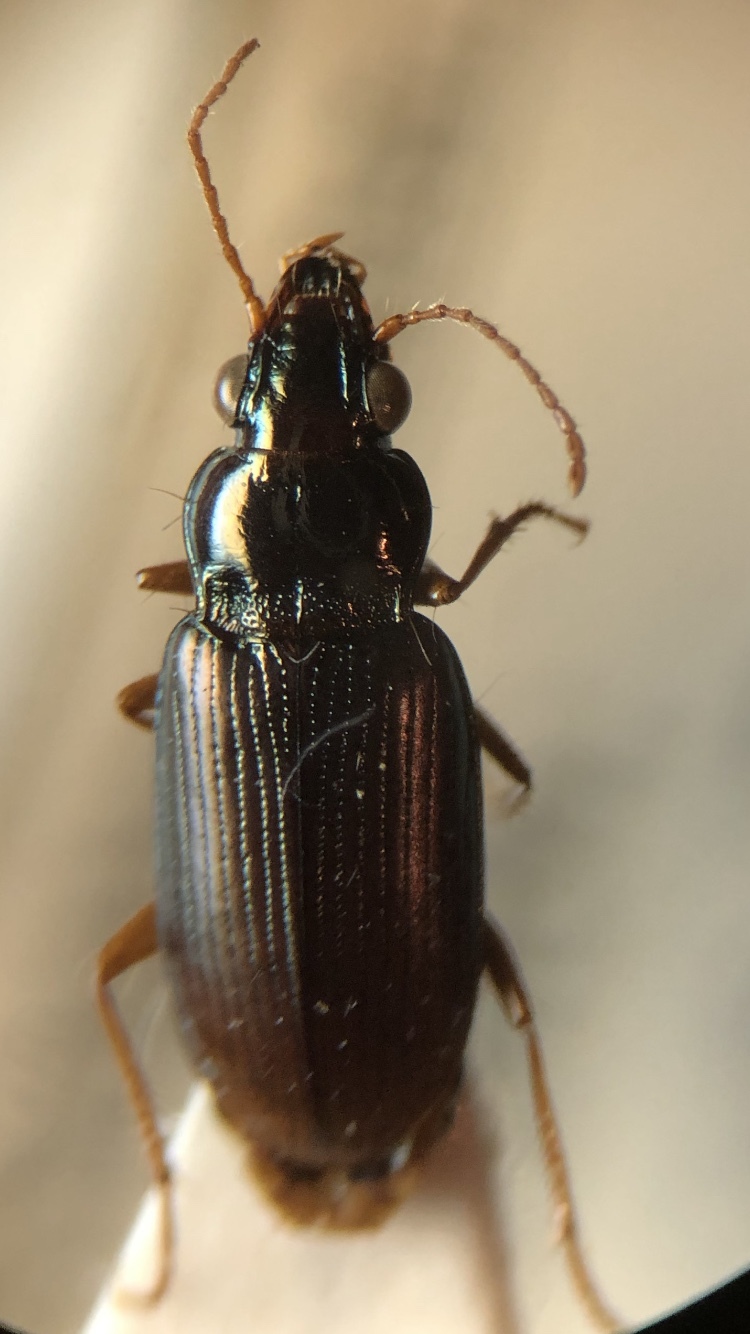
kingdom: Animalia
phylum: Arthropoda
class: Insecta
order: Coleoptera
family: Carabidae
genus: Pogonus
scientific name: Pogonus gilvipes
